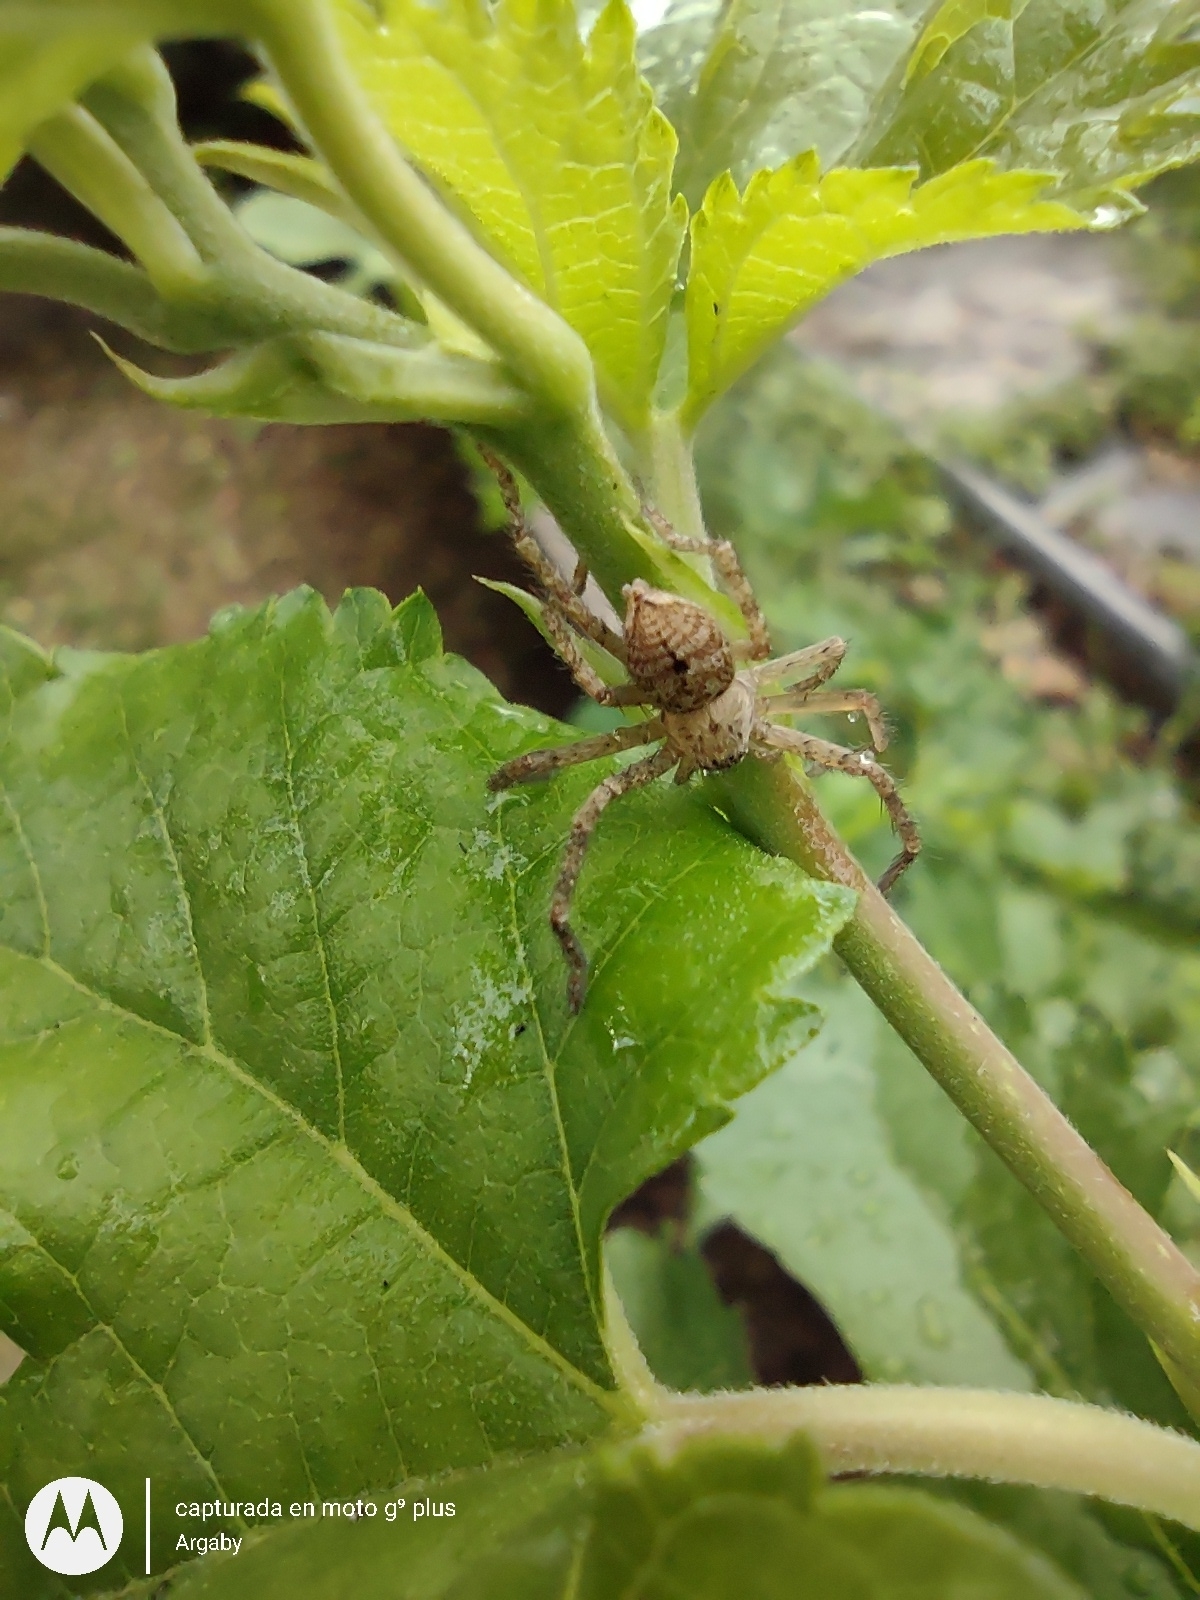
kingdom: Animalia
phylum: Arthropoda
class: Arachnida
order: Araneae
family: Sparassidae
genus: Polybetes
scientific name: Polybetes rapidus
